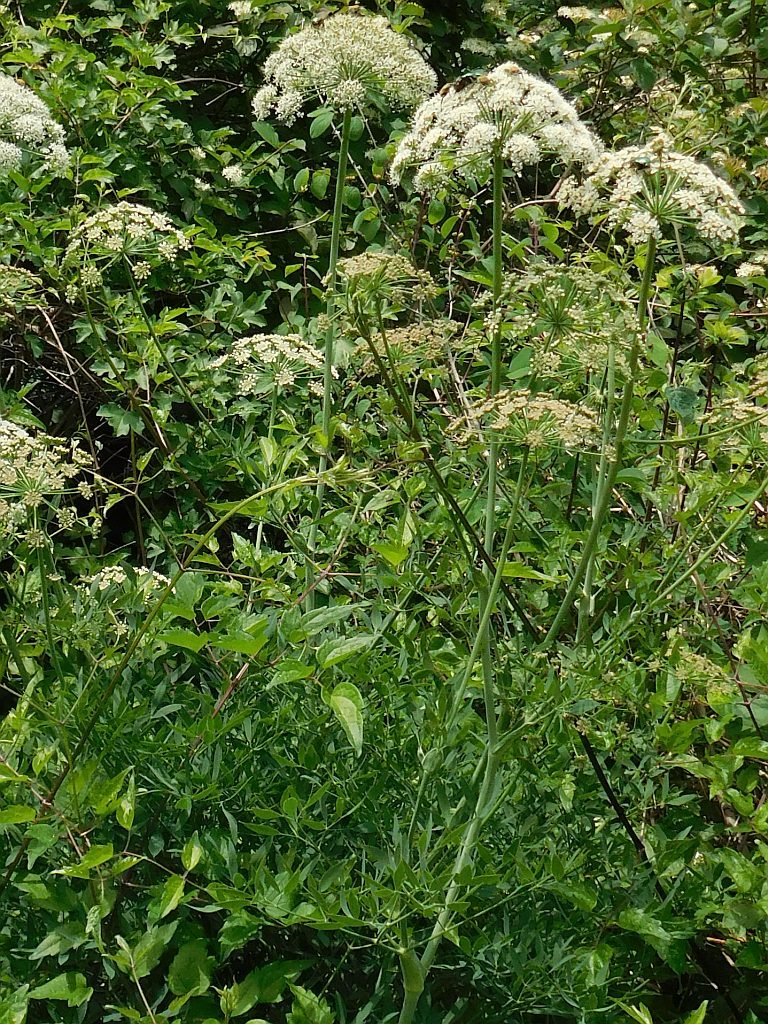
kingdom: Plantae
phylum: Tracheophyta
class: Magnoliopsida
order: Apiales
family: Apiaceae
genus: Siler
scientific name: Siler montanum
